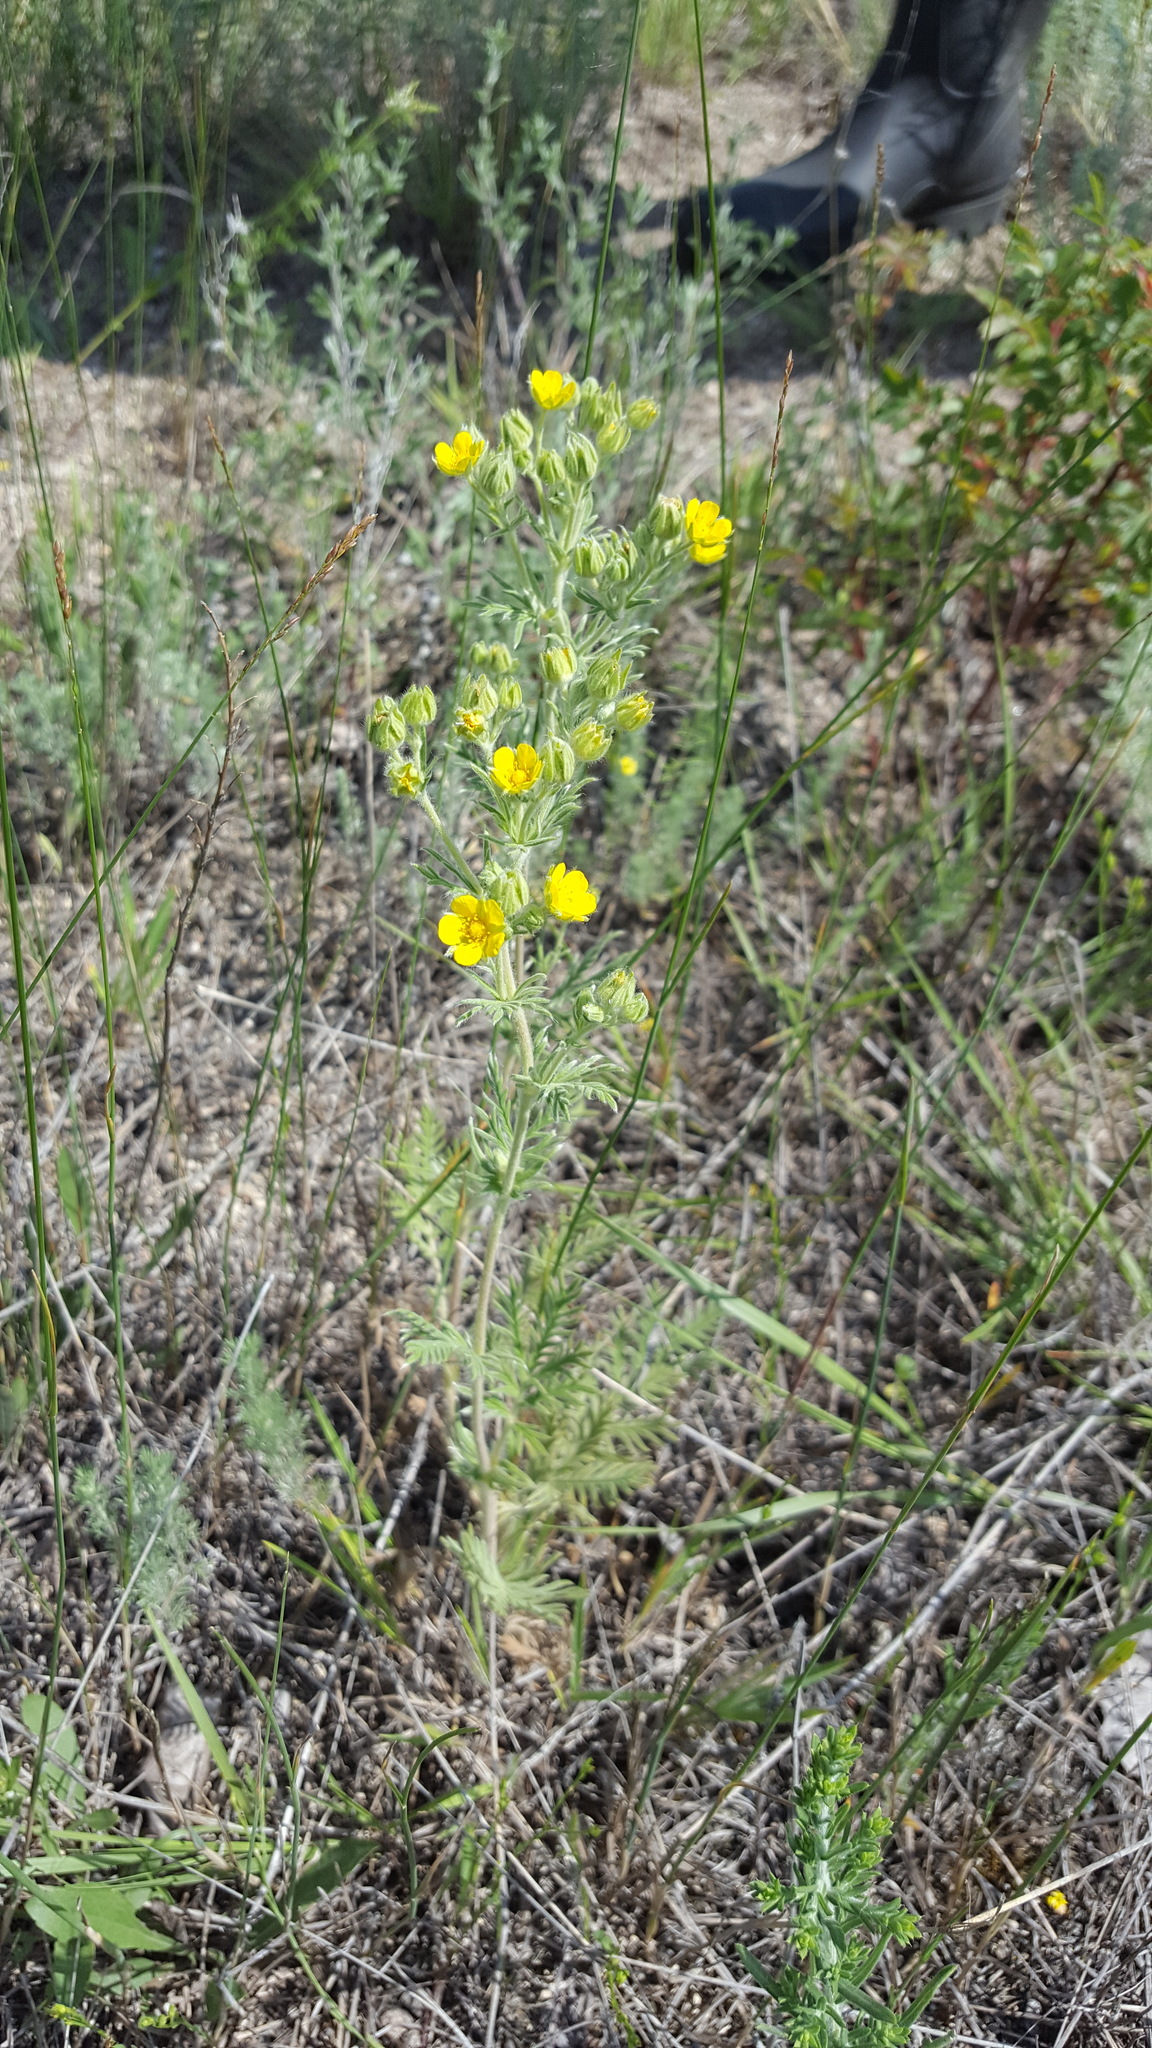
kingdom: Plantae
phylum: Tracheophyta
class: Magnoliopsida
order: Rosales
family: Rosaceae
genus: Potentilla
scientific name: Potentilla pensylvanica
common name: Pennsylvania cinquefoil
